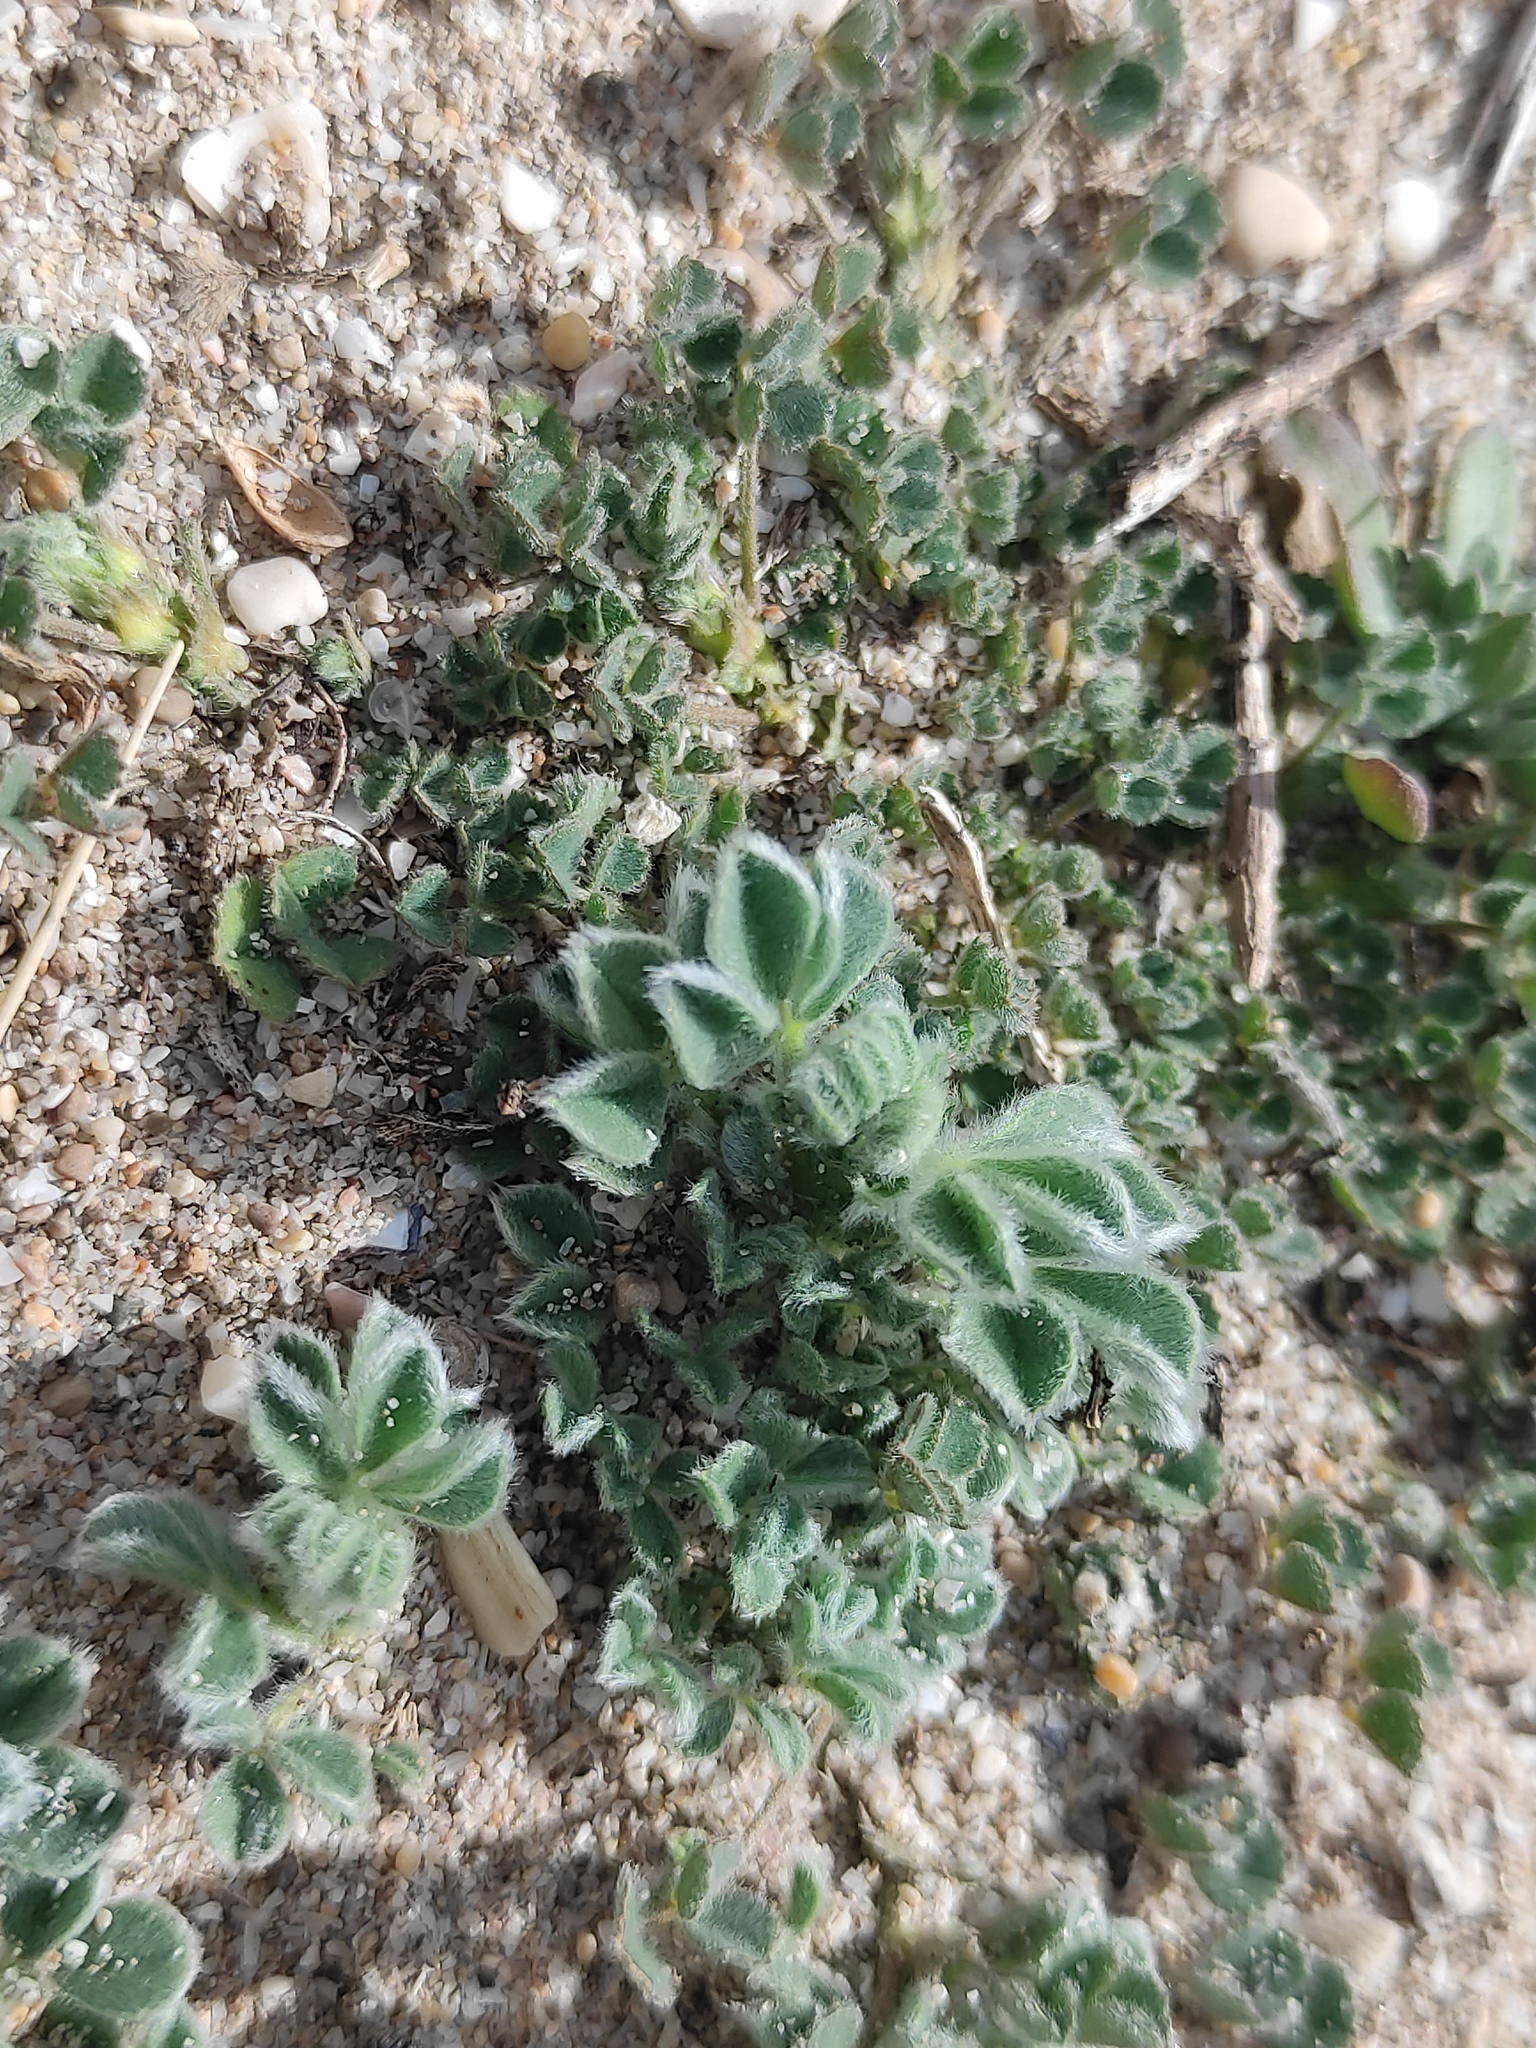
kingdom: Plantae
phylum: Tracheophyta
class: Magnoliopsida
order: Fabales
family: Fabaceae
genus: Medicago
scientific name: Medicago marina
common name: Sea medick
